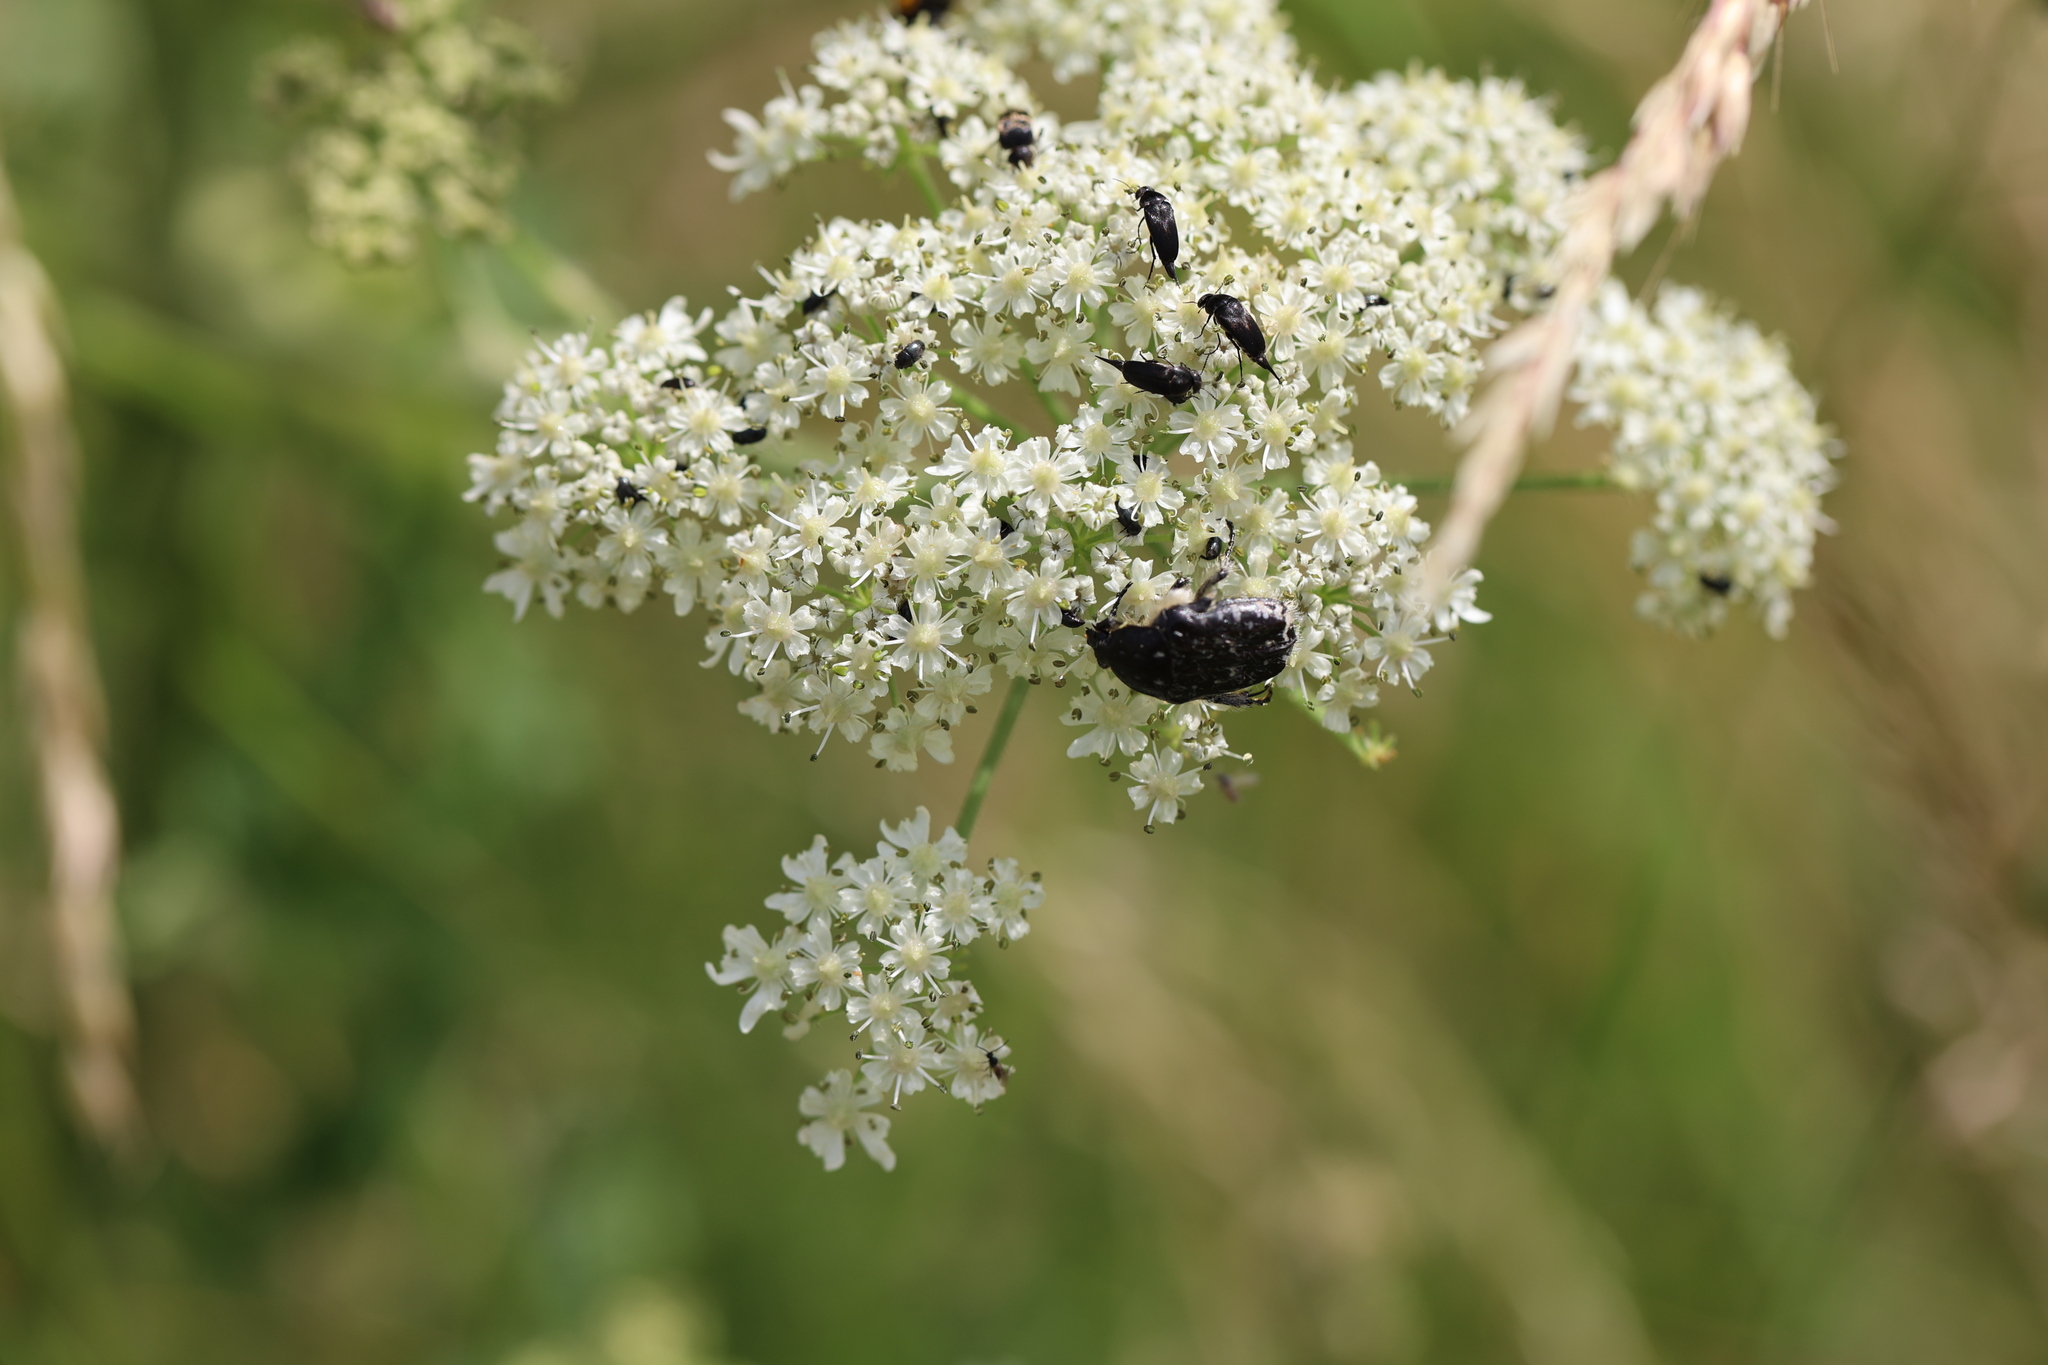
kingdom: Animalia
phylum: Arthropoda
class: Insecta
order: Coleoptera
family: Scarabaeidae
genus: Oxythyrea
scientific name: Oxythyrea funesta
